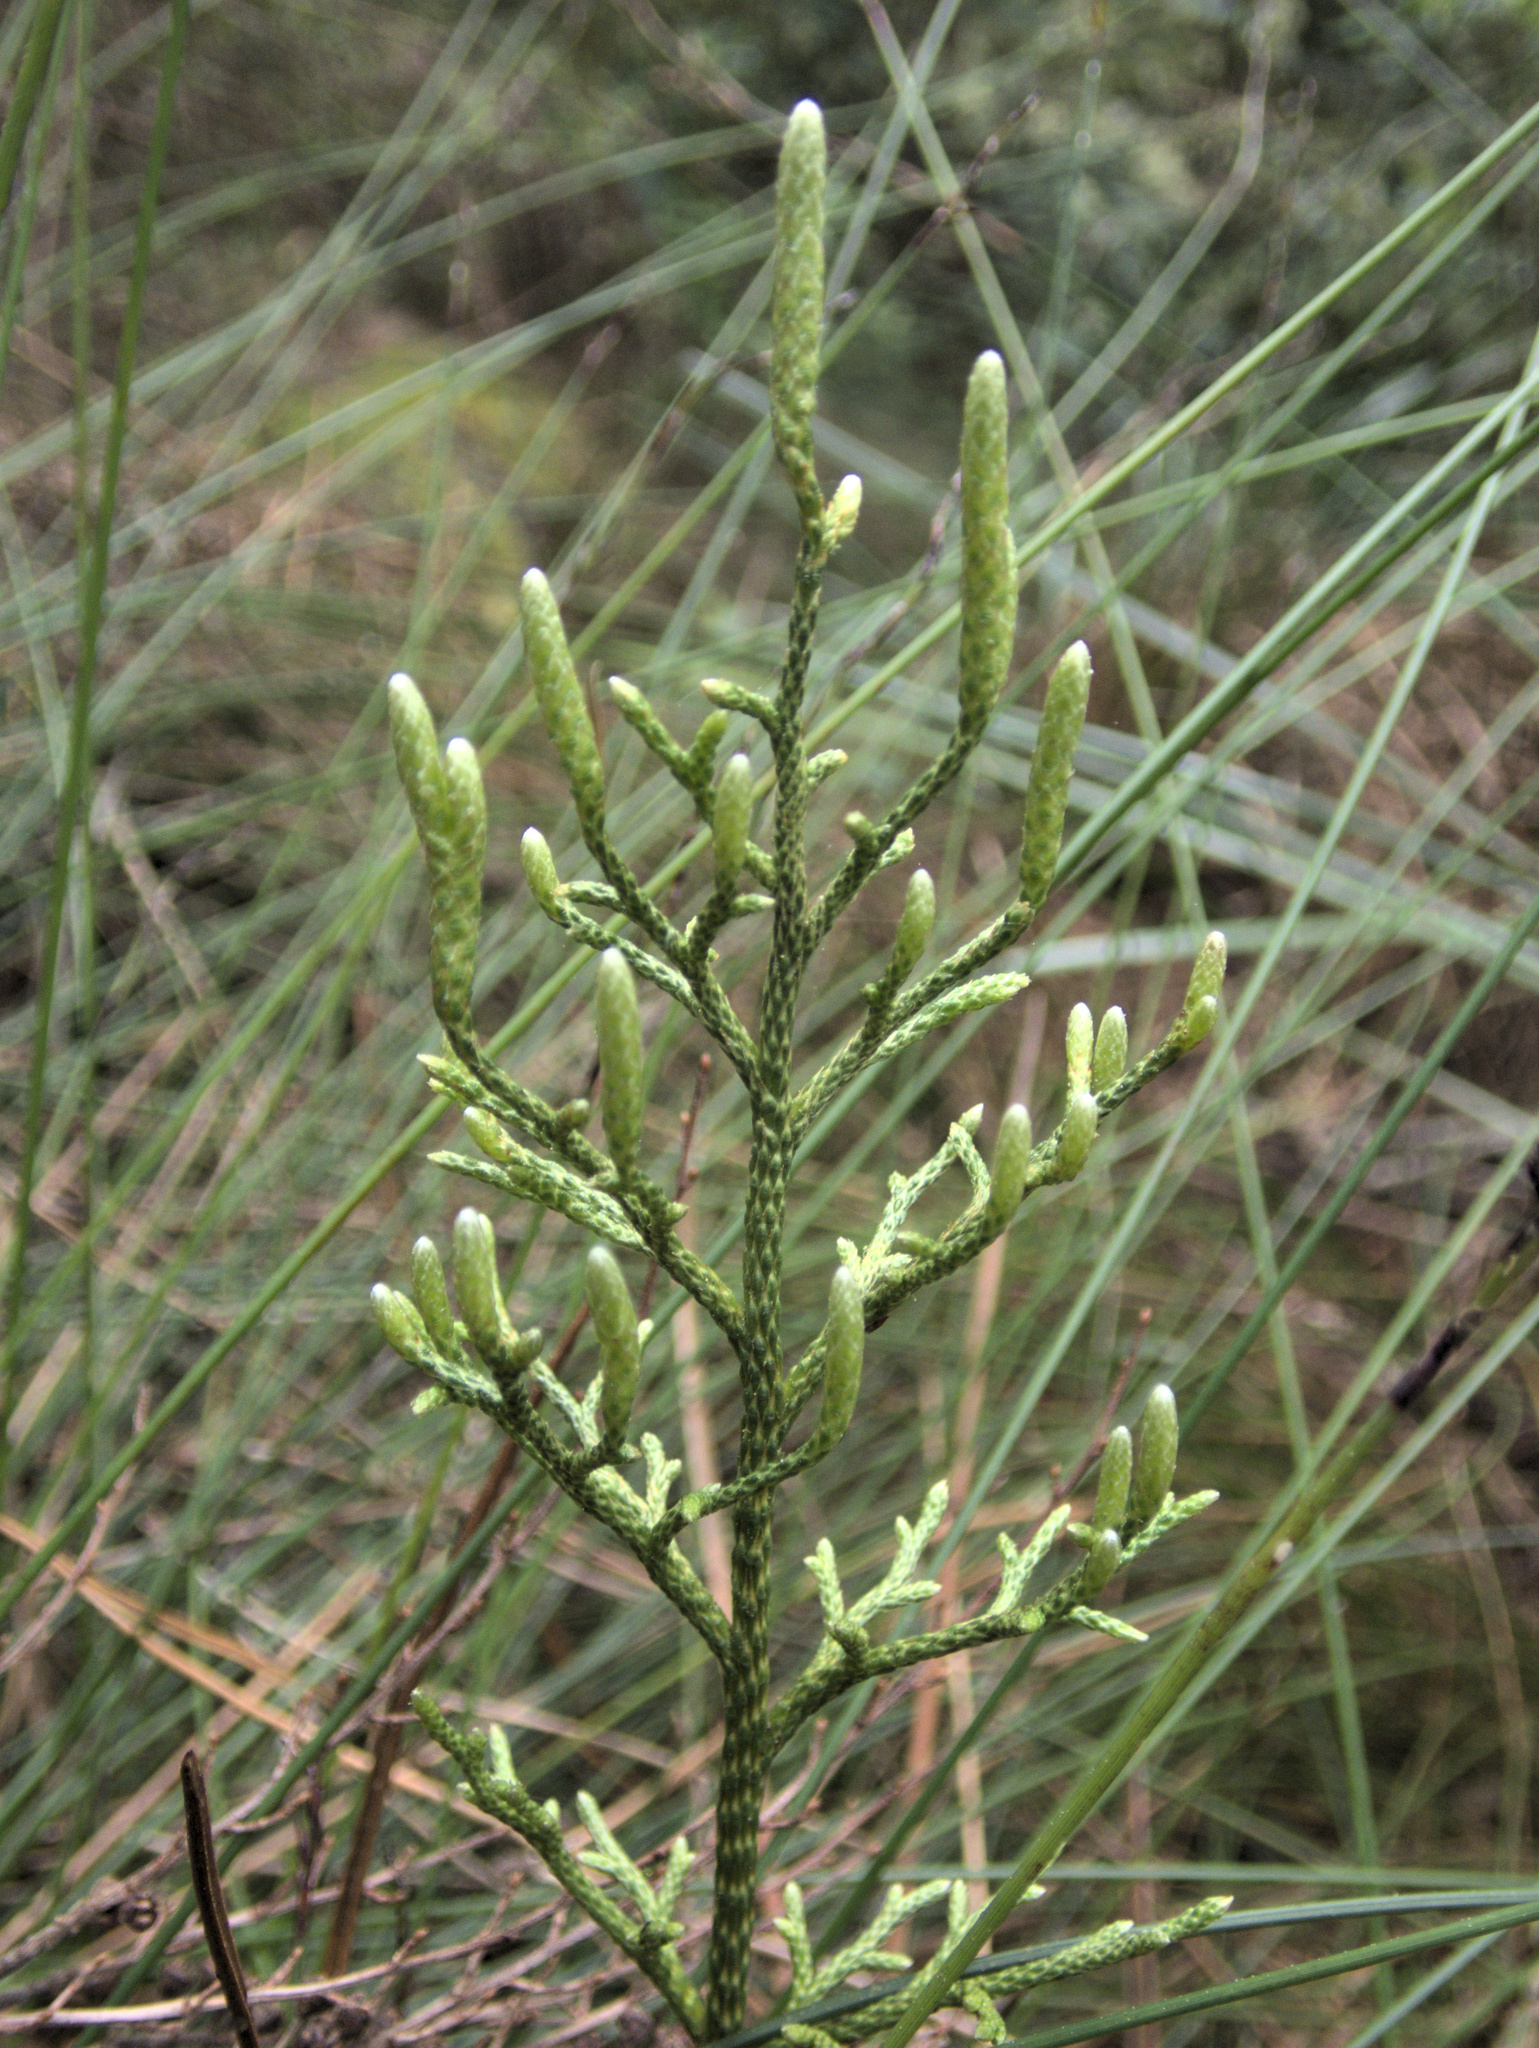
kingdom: Plantae
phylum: Tracheophyta
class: Lycopodiopsida
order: Lycopodiales
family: Lycopodiaceae
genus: Pseudolycopodium
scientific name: Pseudolycopodium densum
